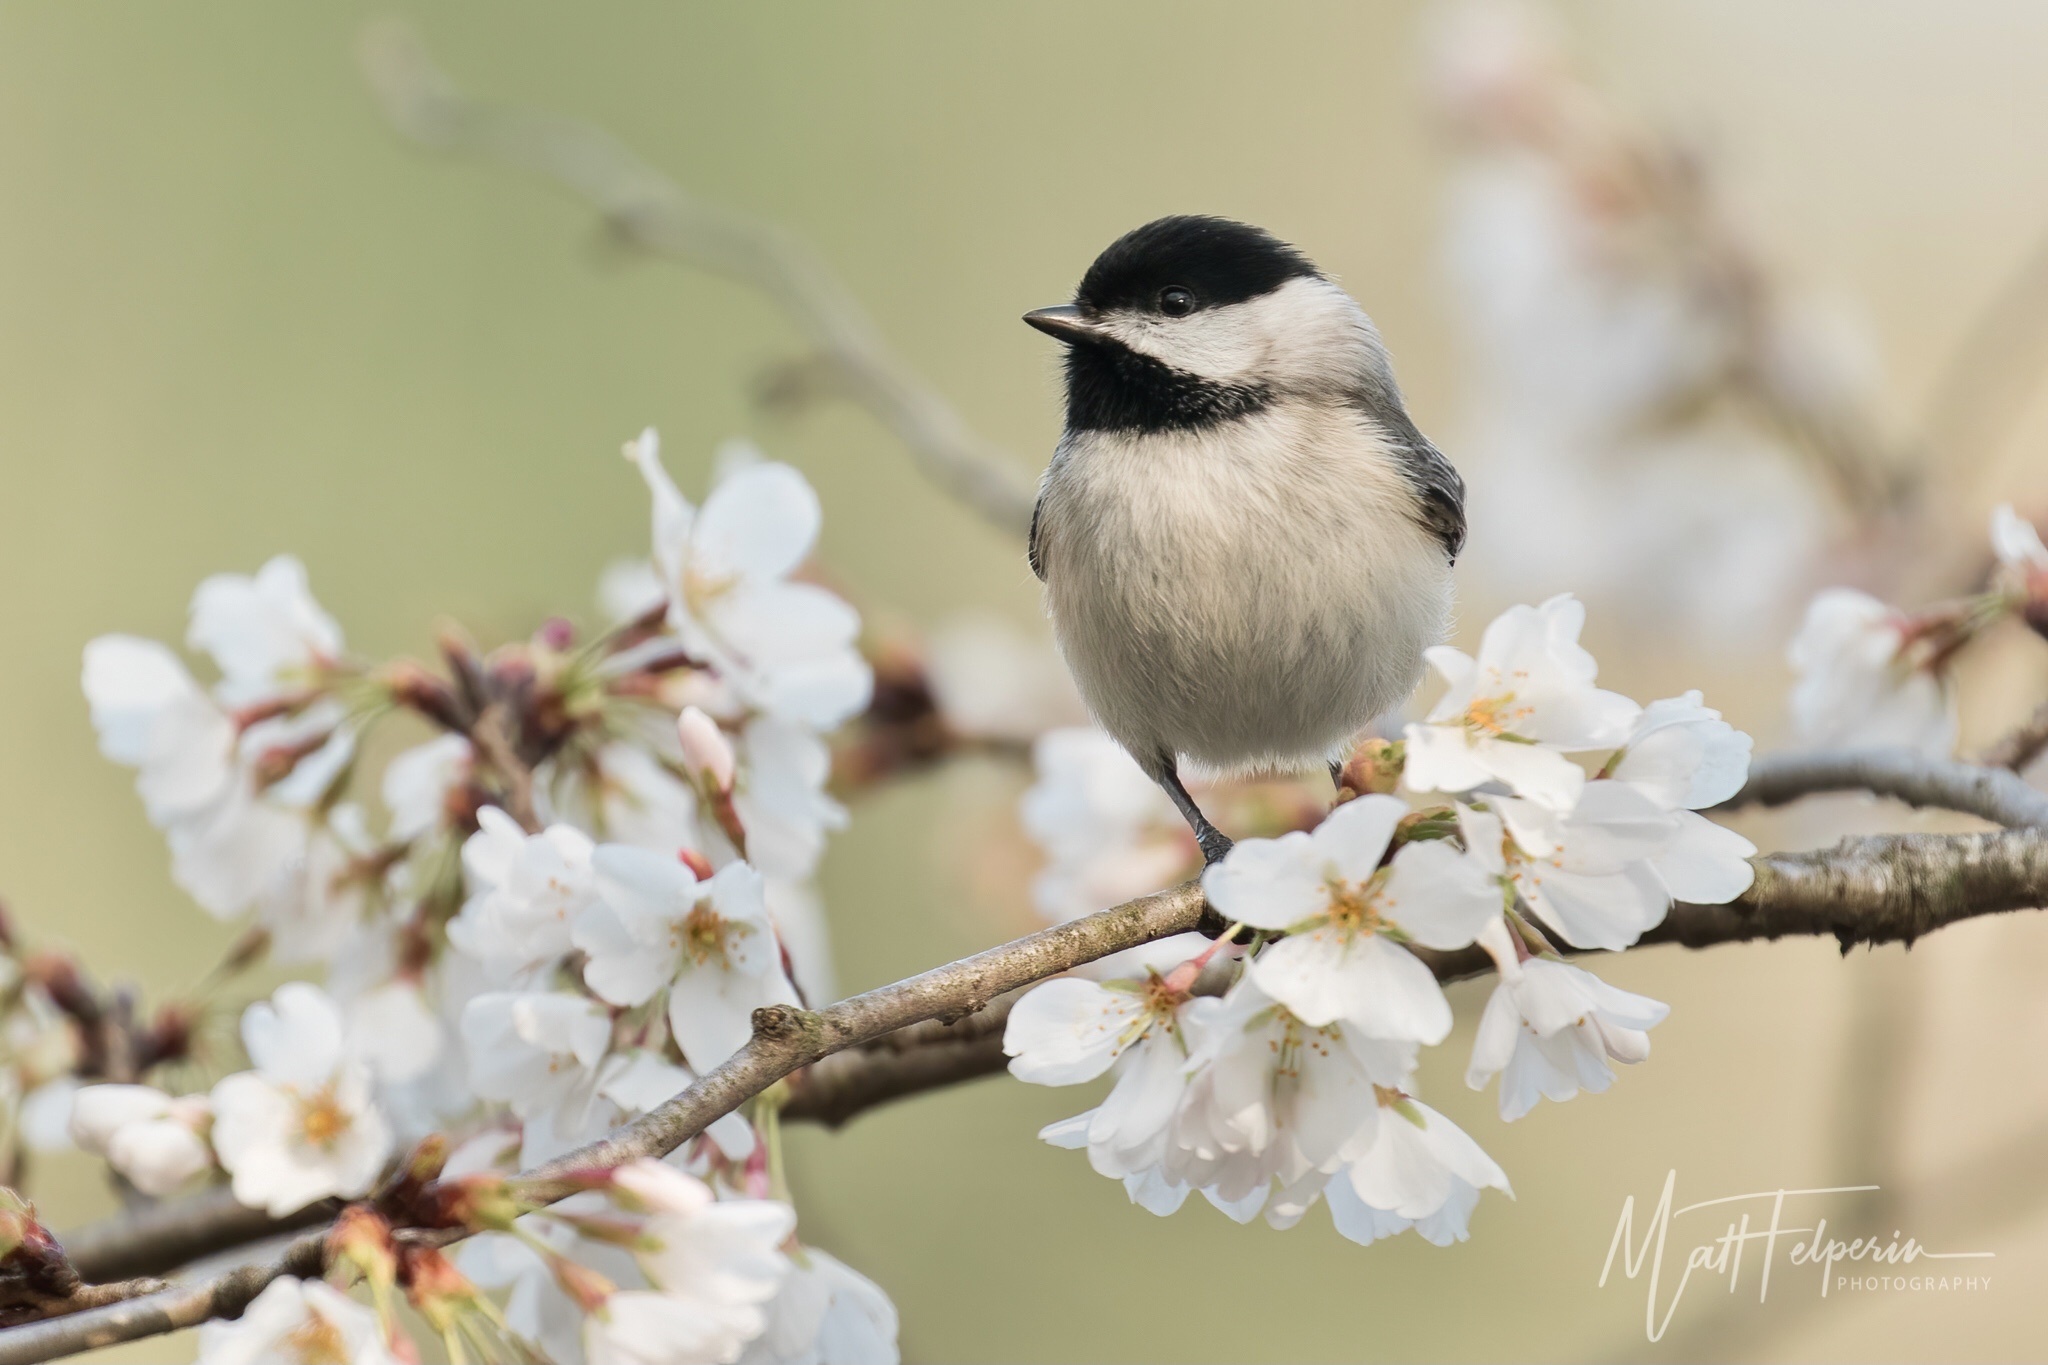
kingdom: Animalia
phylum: Chordata
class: Aves
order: Passeriformes
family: Paridae
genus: Poecile
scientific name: Poecile carolinensis
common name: Carolina chickadee
